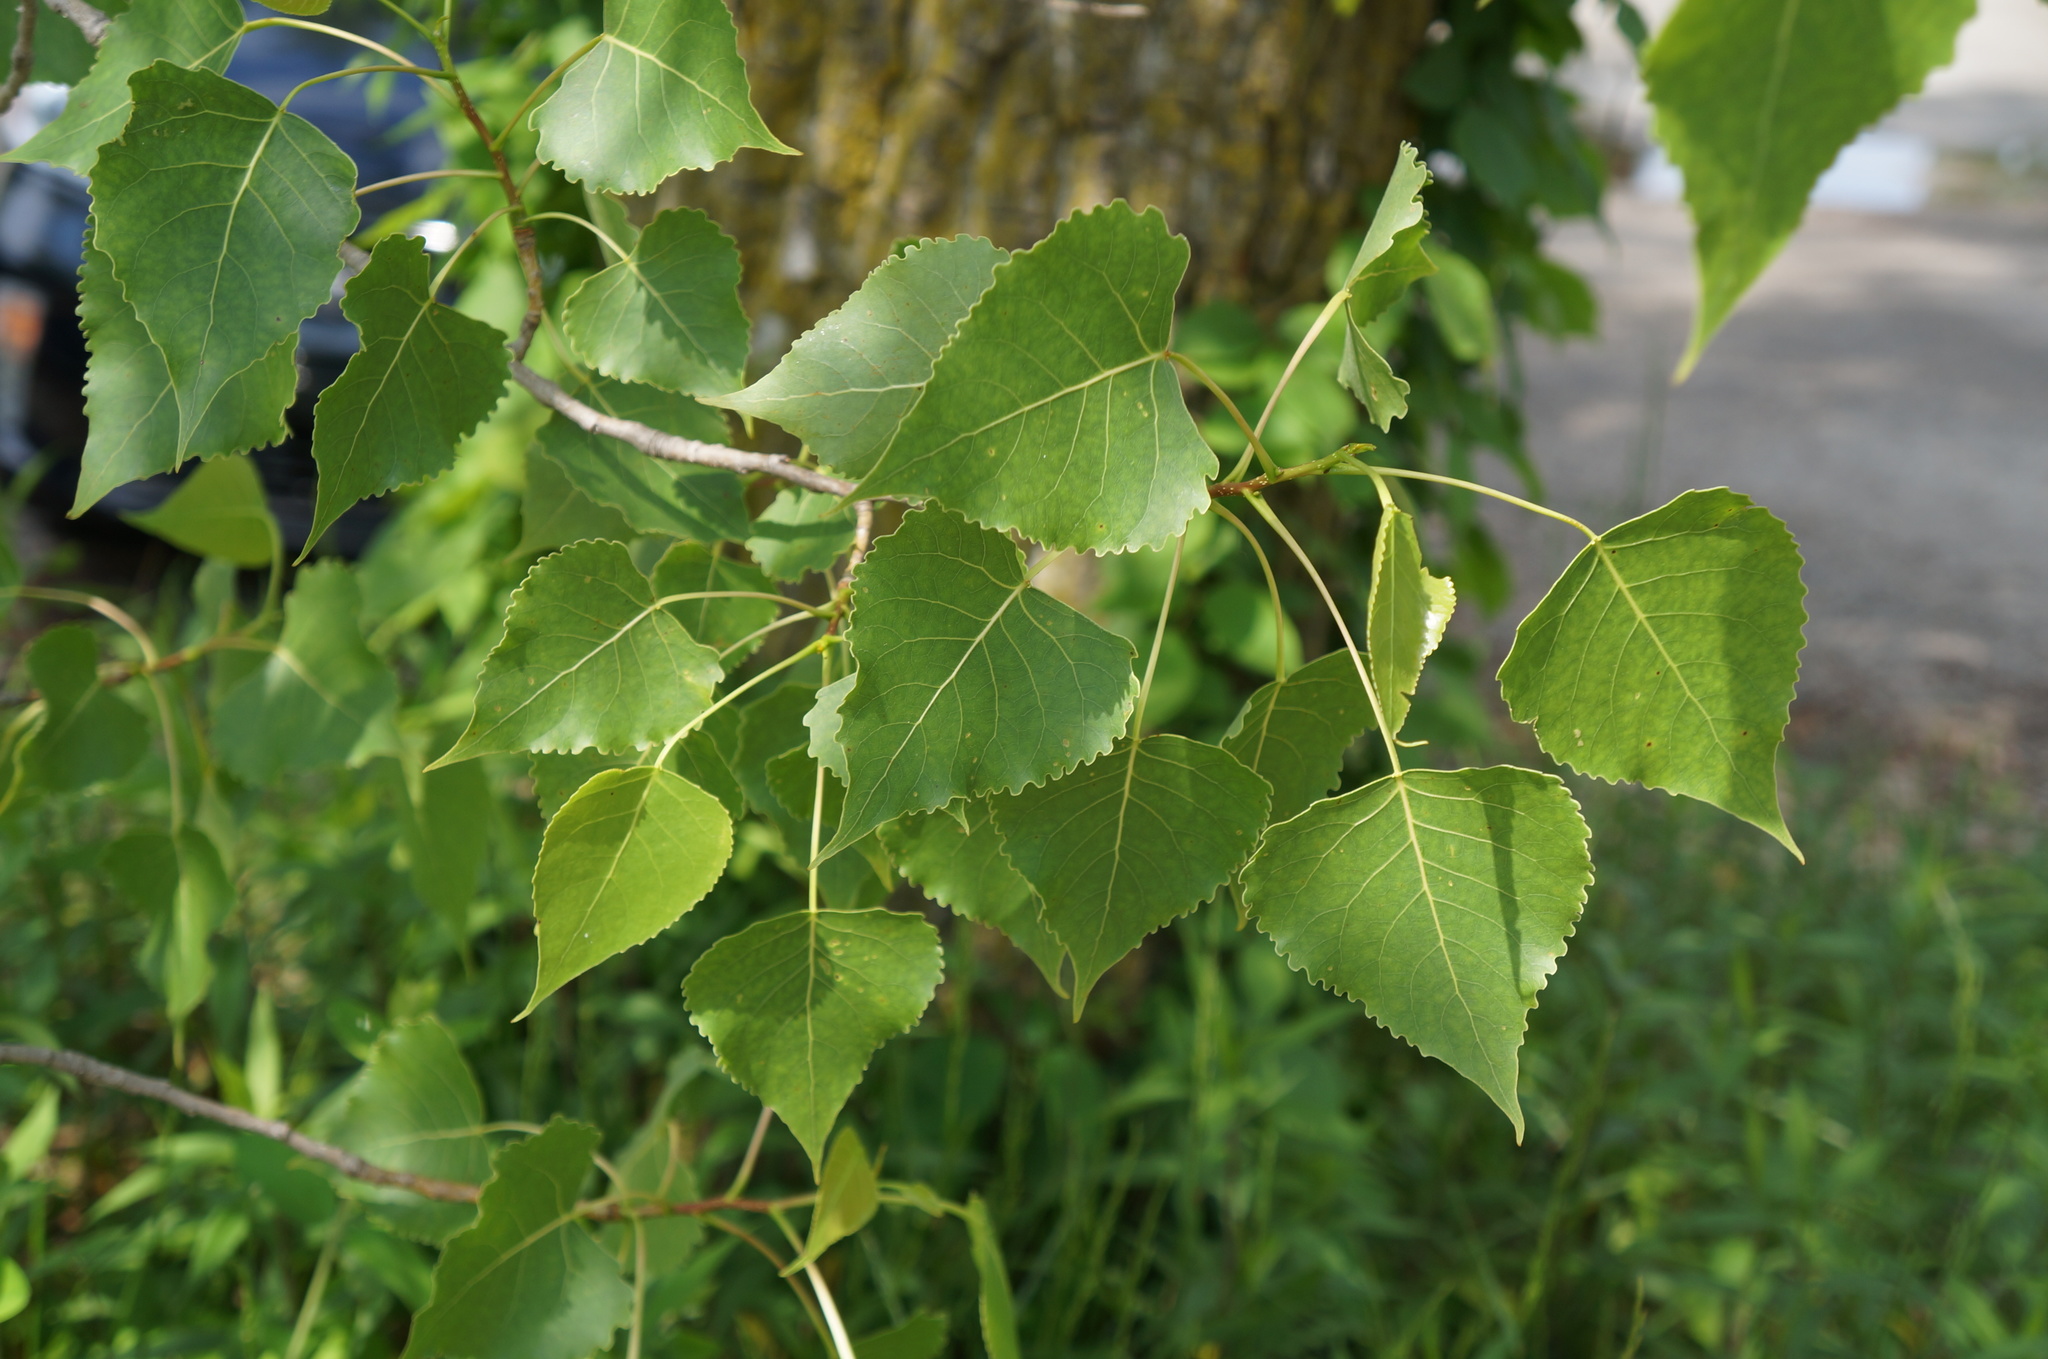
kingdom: Plantae
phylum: Tracheophyta
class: Magnoliopsida
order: Malpighiales
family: Salicaceae
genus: Populus
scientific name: Populus deltoides
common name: Eastern cottonwood
